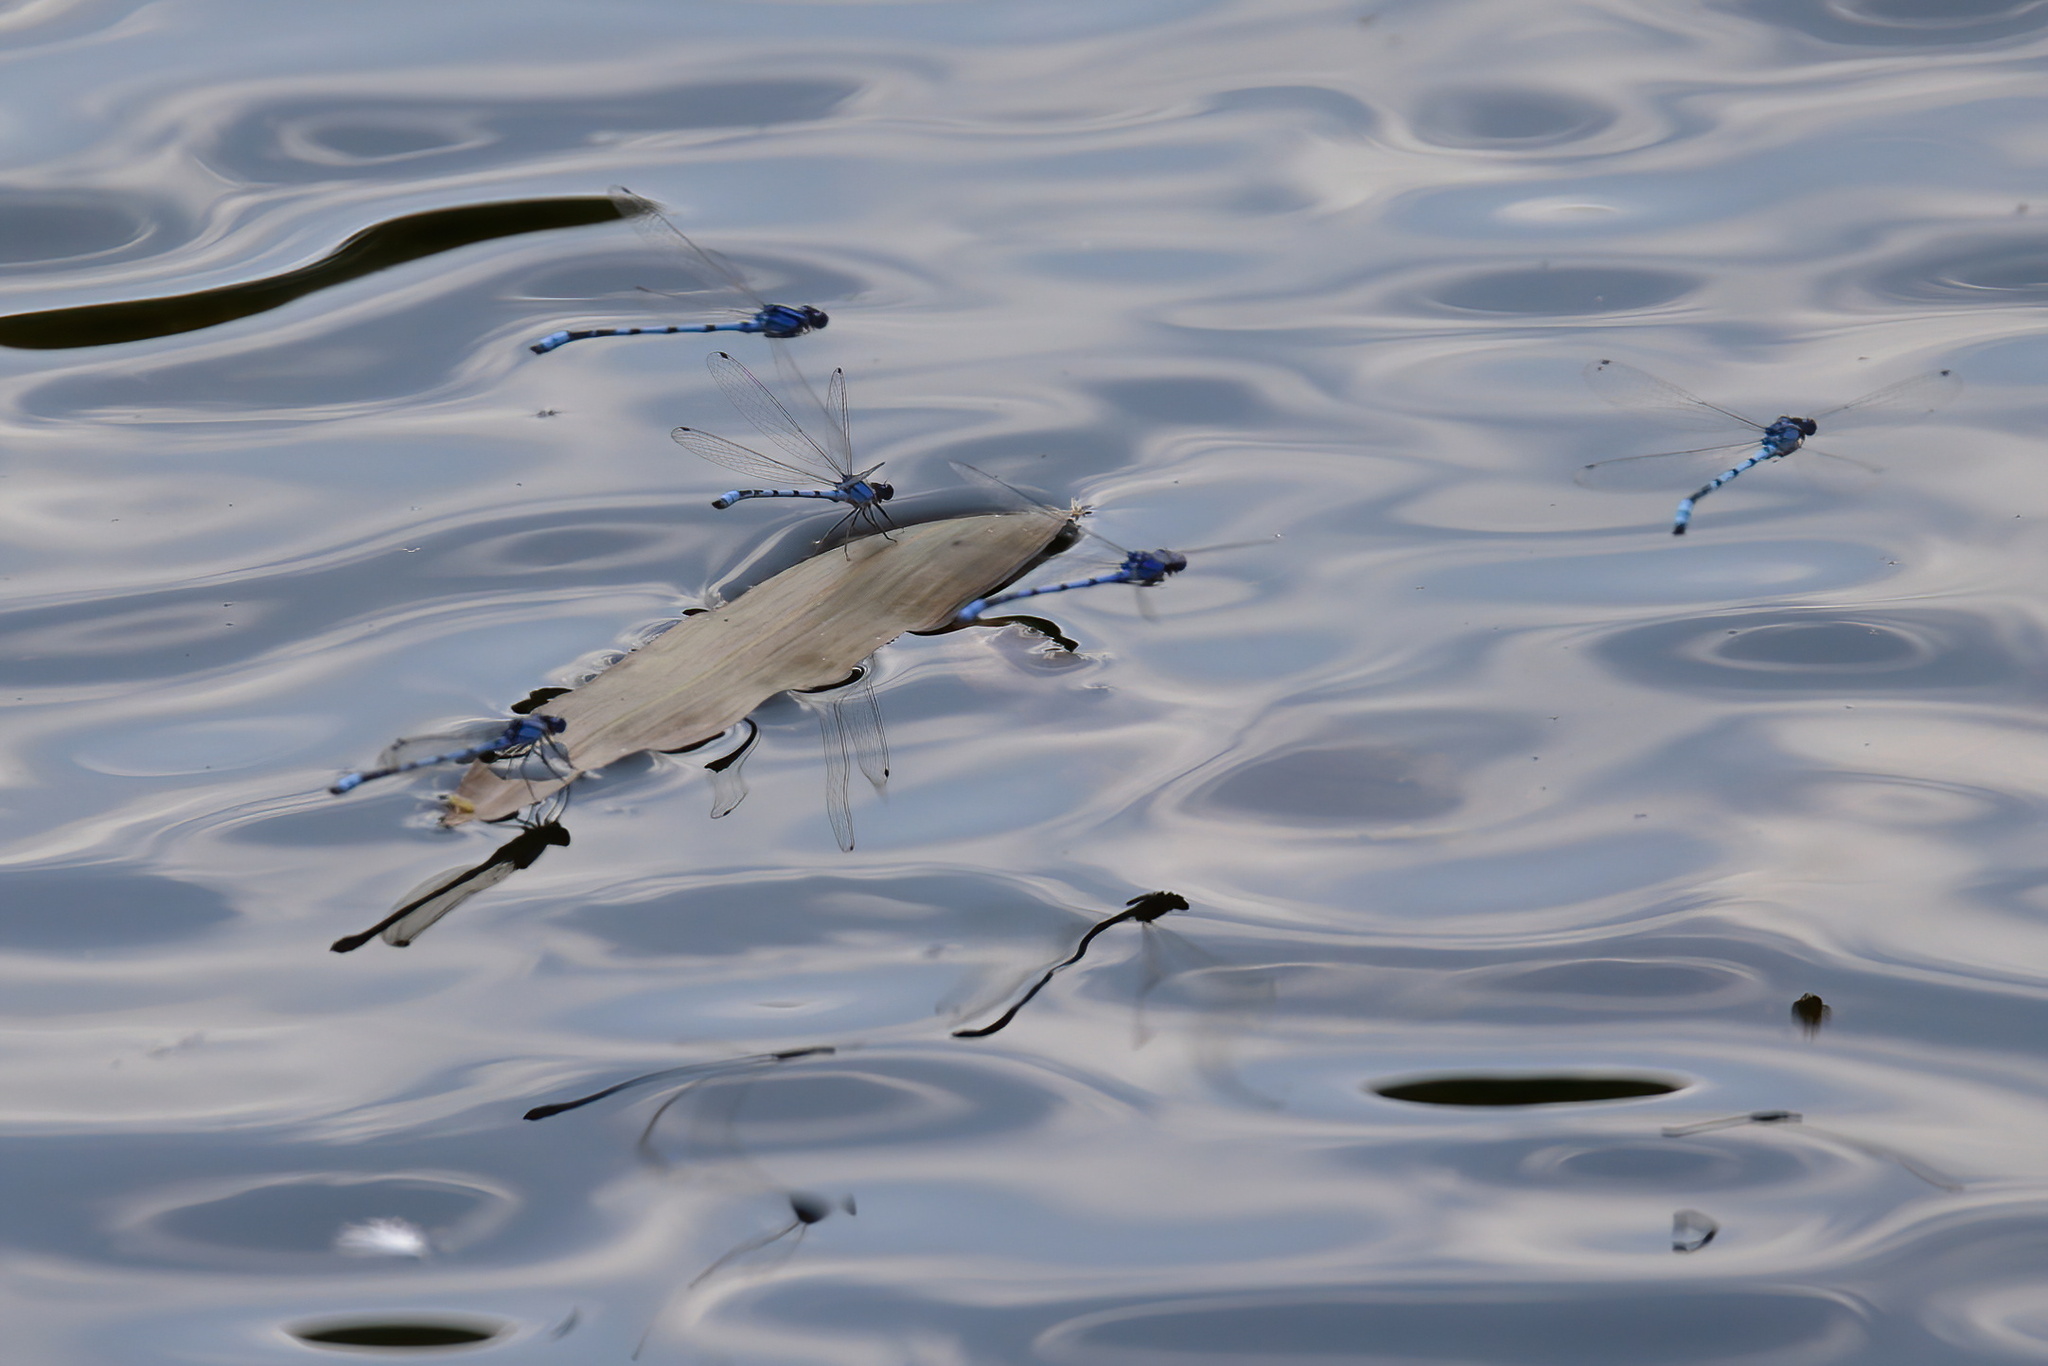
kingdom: Animalia
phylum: Arthropoda
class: Insecta
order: Odonata
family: Coenagrionidae
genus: Enallagma
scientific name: Enallagma civile
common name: Damselfly
